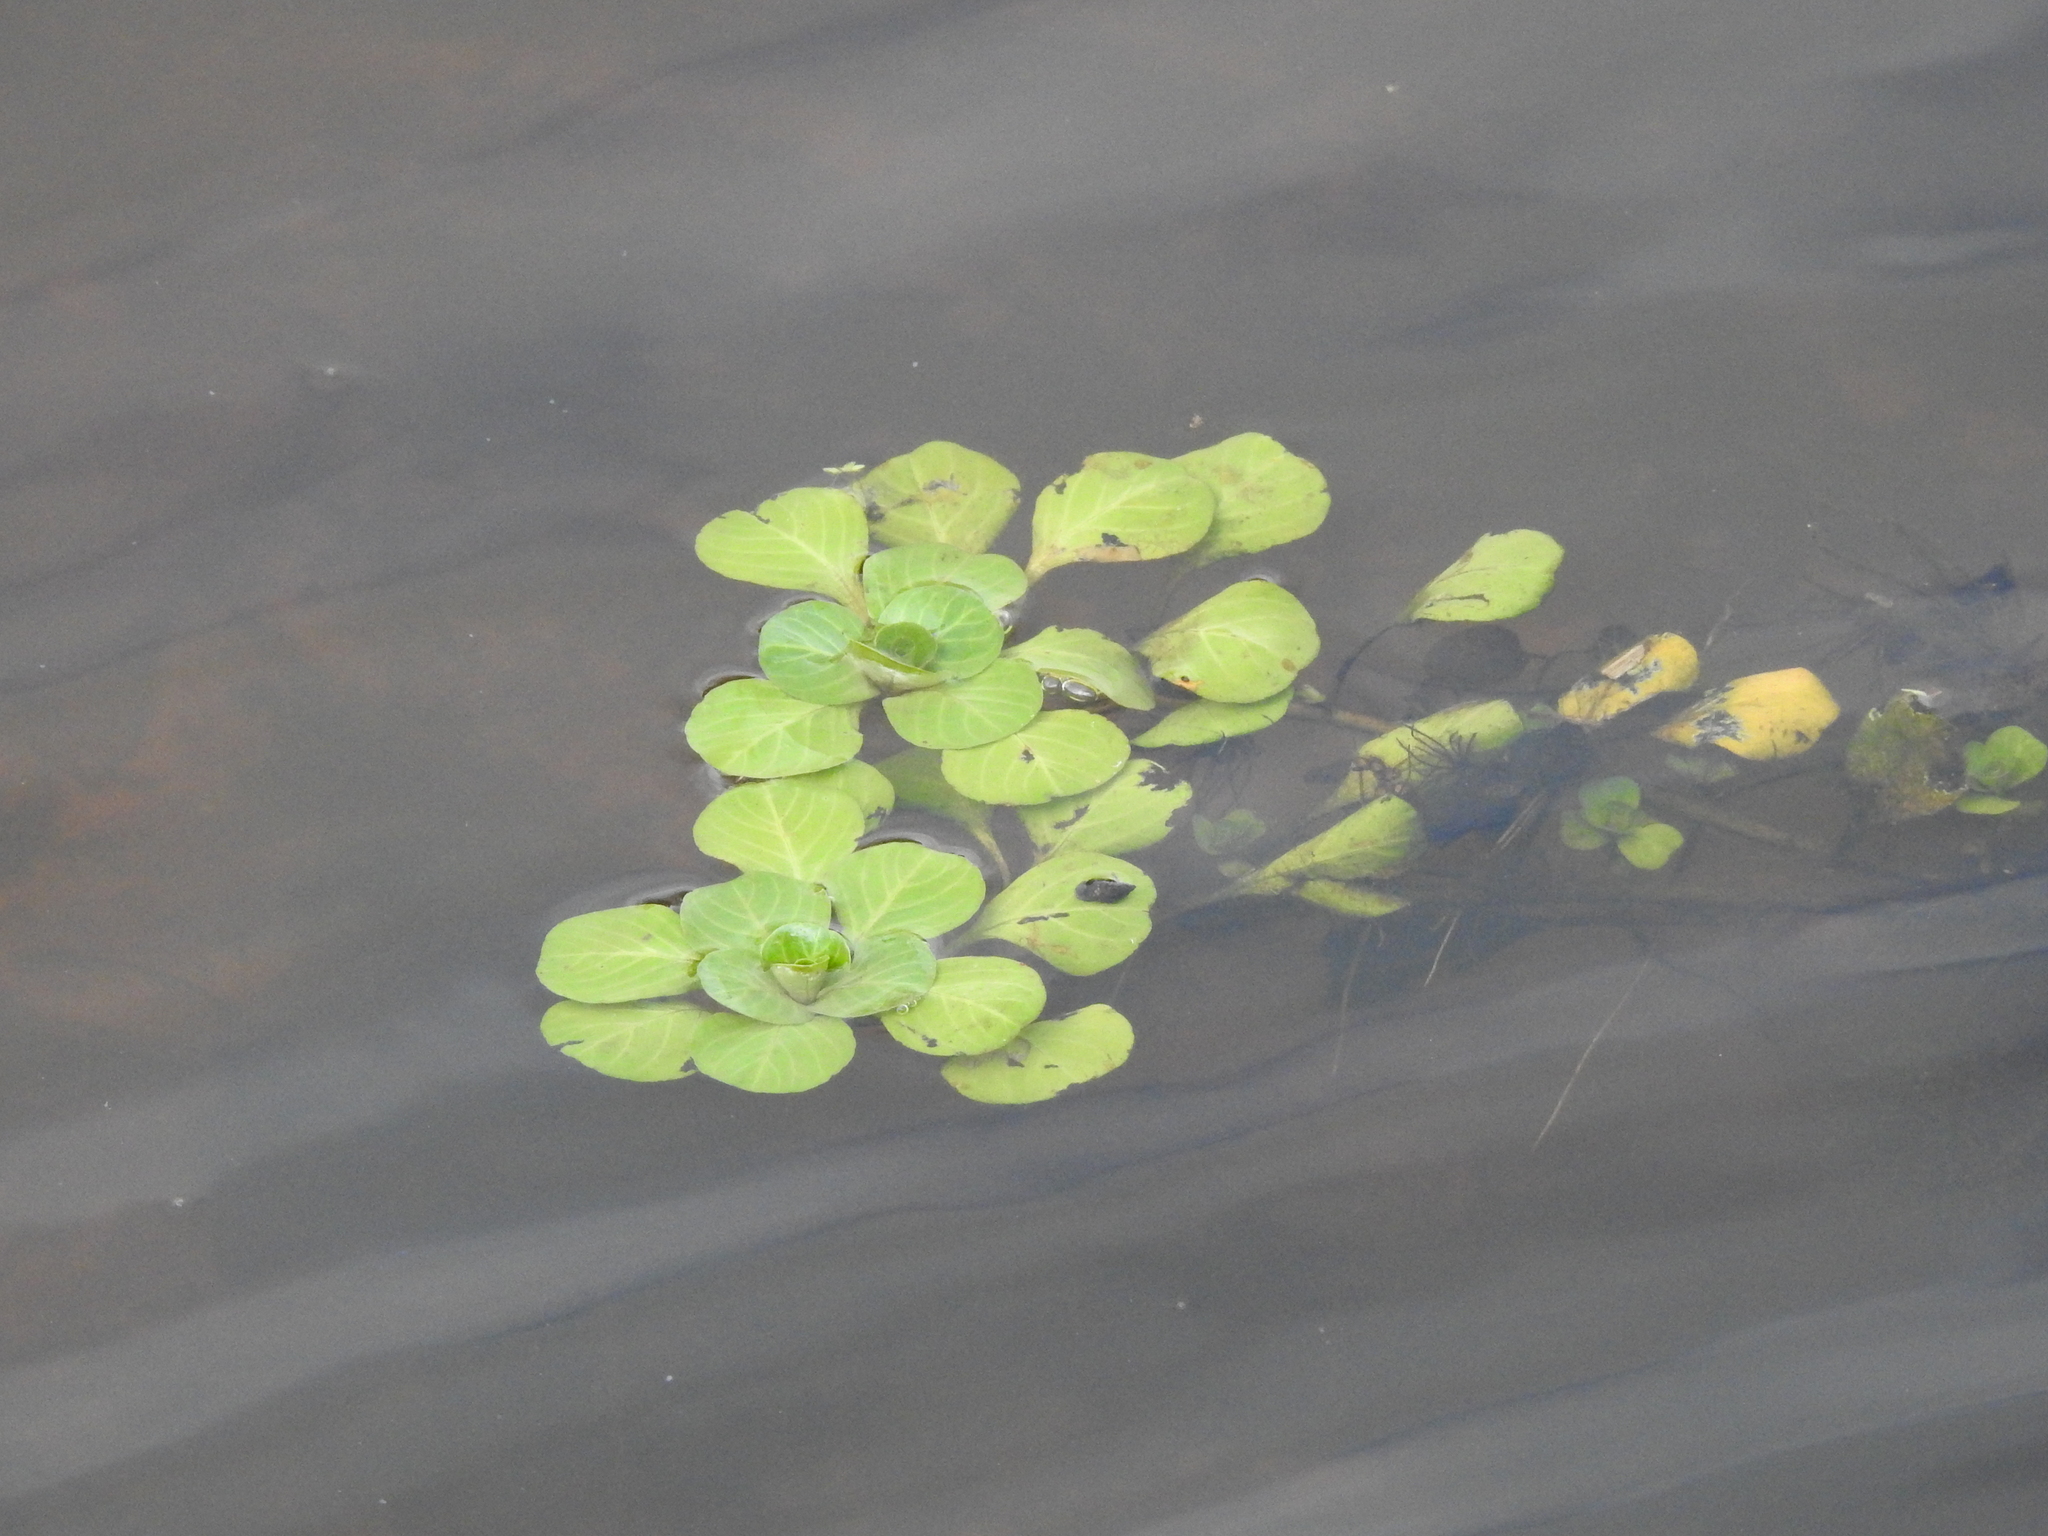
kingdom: Plantae
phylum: Tracheophyta
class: Magnoliopsida
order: Myrtales
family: Onagraceae
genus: Ludwigia
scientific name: Ludwigia peploides
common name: Floating primrose-willow
